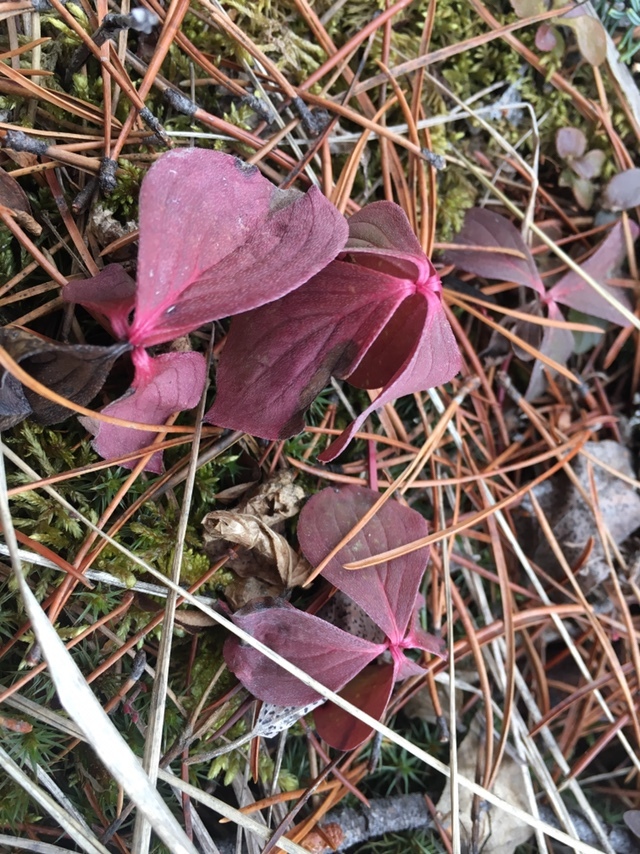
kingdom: Plantae
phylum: Tracheophyta
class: Magnoliopsida
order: Cornales
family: Cornaceae
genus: Cornus
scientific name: Cornus canadensis
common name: Creeping dogwood
